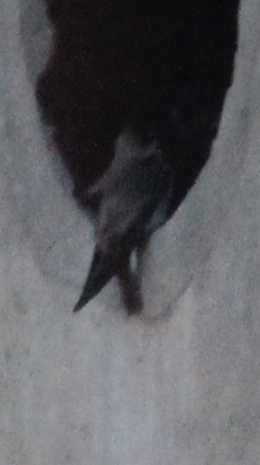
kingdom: Animalia
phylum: Chordata
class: Aves
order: Passeriformes
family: Hirundinidae
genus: Stelgidopteryx
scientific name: Stelgidopteryx serripennis
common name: Northern rough-winged swallow
